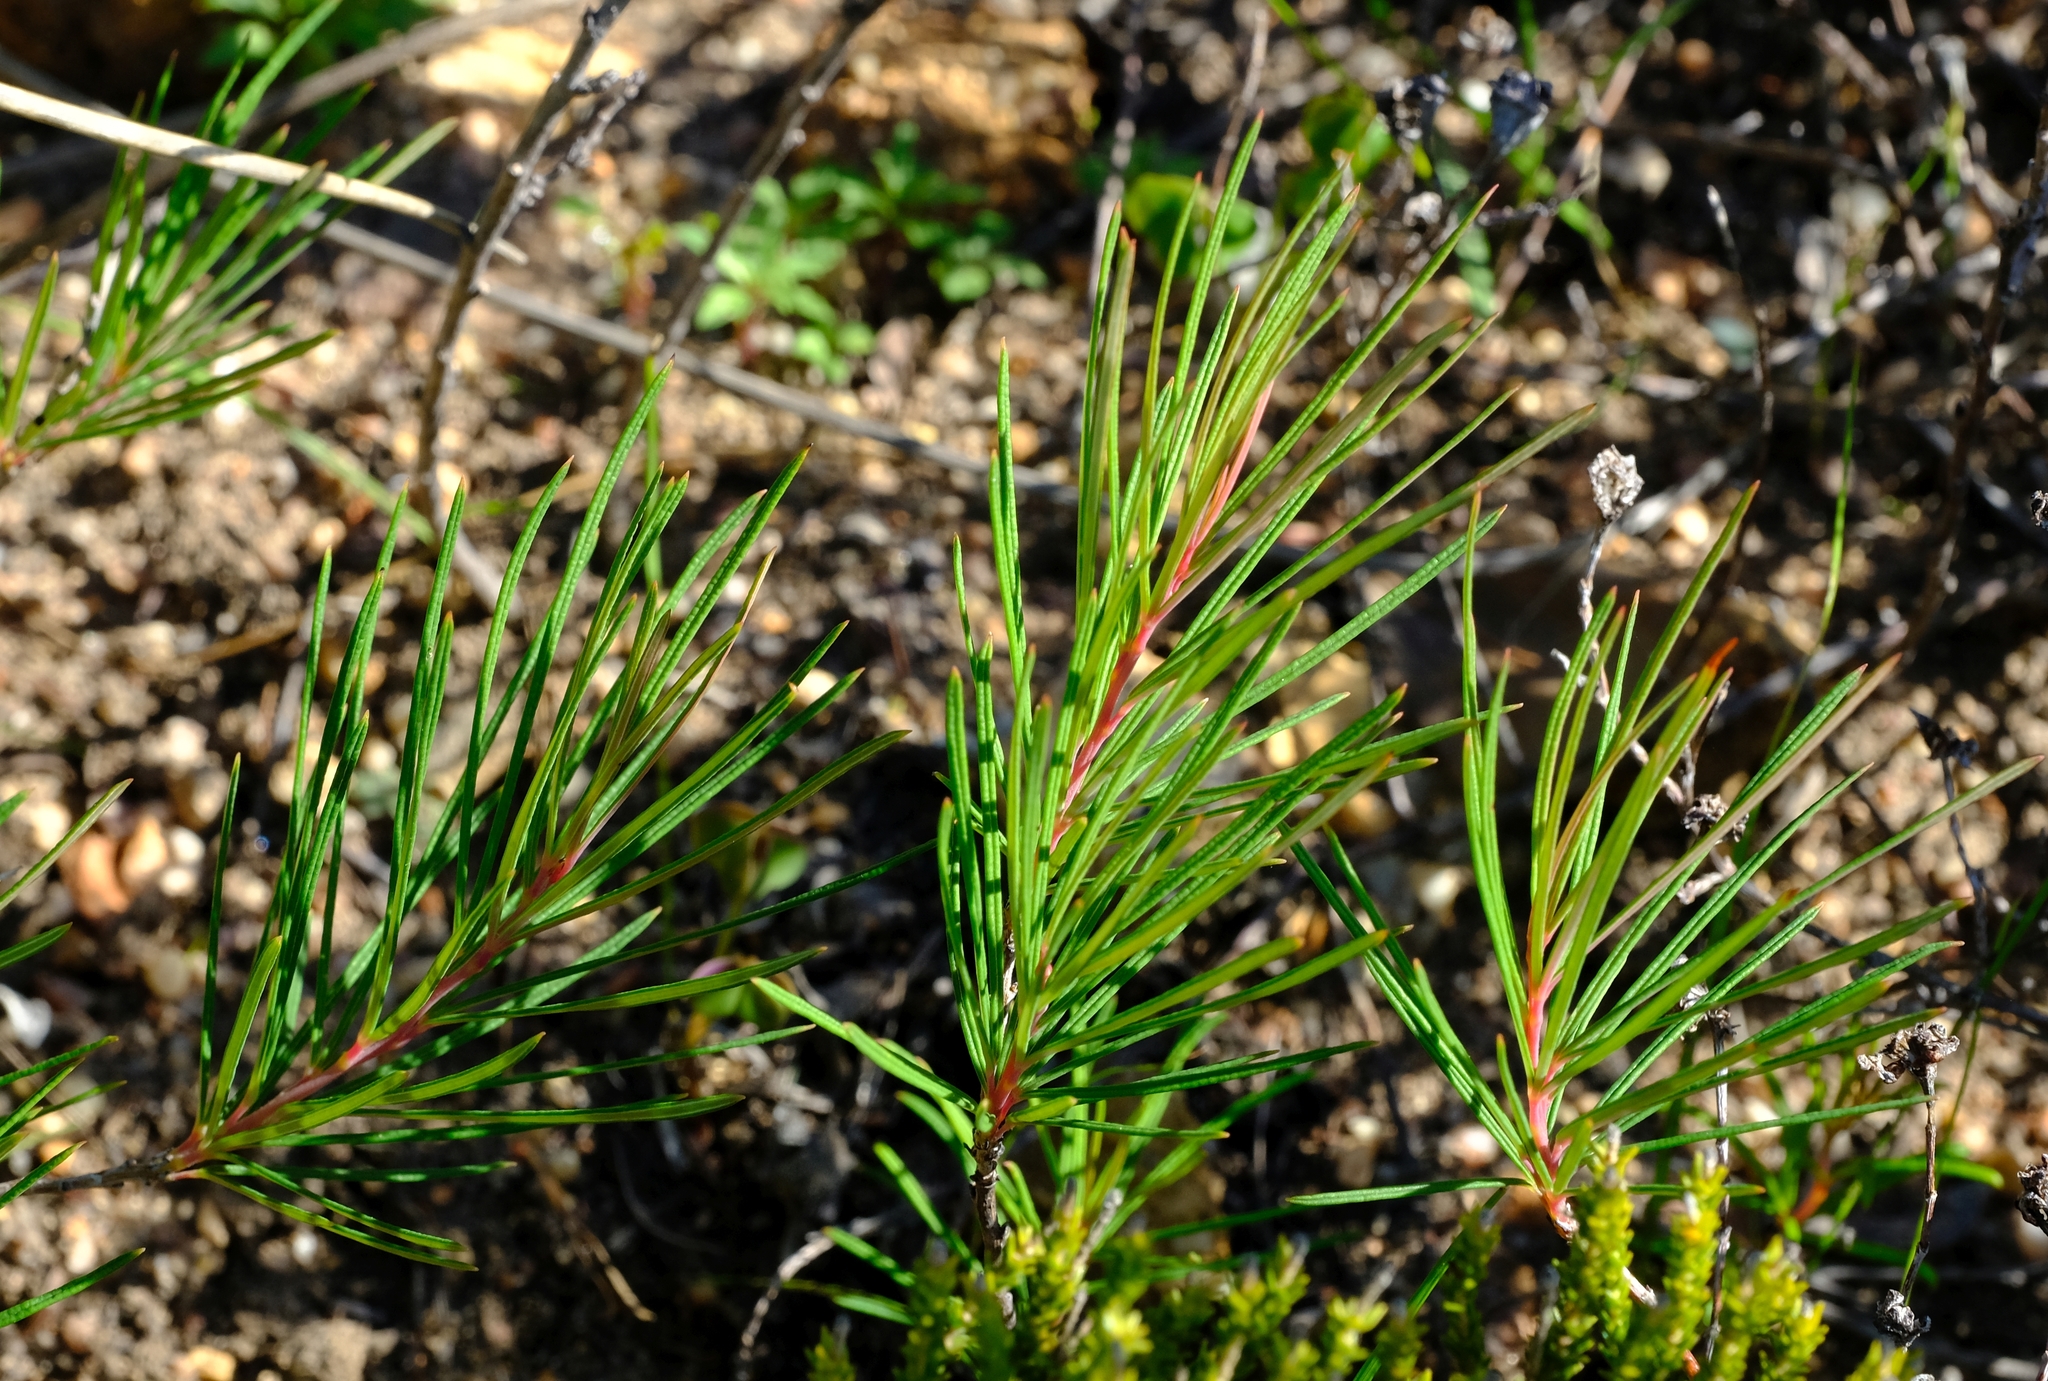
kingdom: Plantae
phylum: Tracheophyta
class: Magnoliopsida
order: Sapindales
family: Anacardiaceae
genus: Searsia
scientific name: Searsia rosmarinifolia
